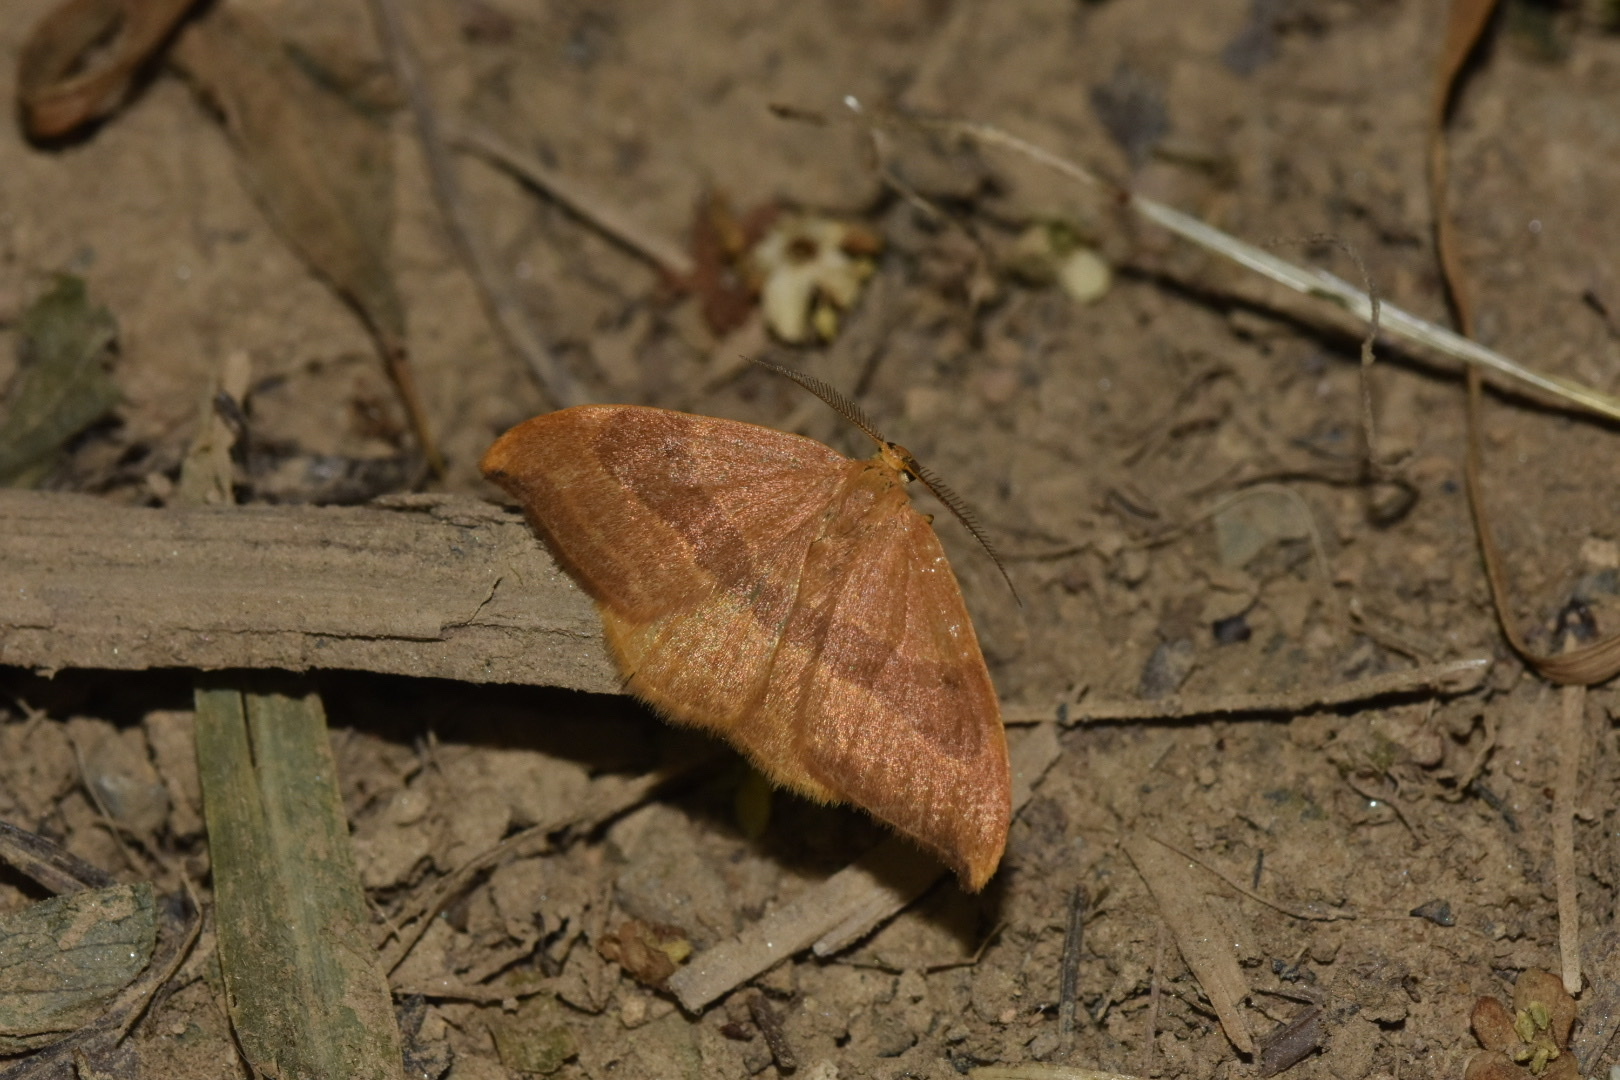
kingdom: Animalia
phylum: Arthropoda
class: Insecta
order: Lepidoptera
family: Drepanidae
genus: Watsonalla
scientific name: Watsonalla cultraria
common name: Barred hook-tip
